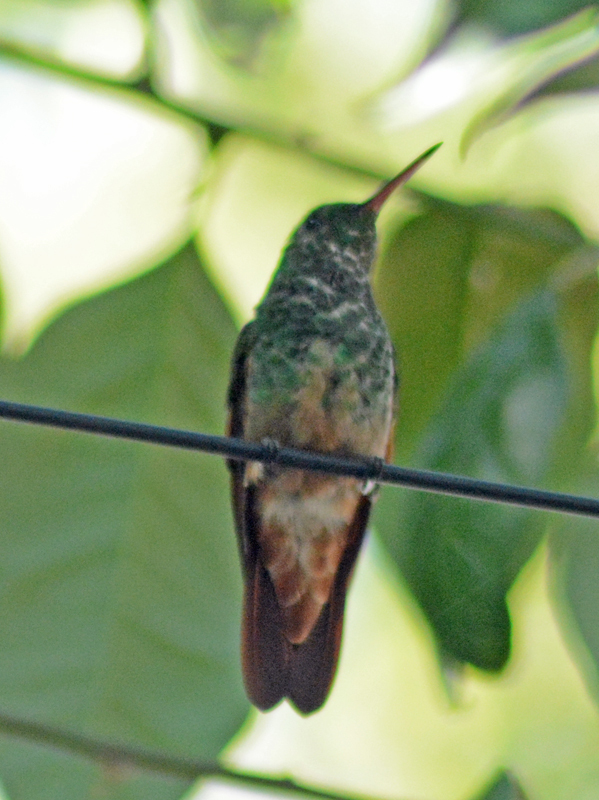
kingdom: Animalia
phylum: Chordata
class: Aves
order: Apodiformes
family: Trochilidae
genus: Saucerottia
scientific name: Saucerottia beryllina
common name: Berylline hummingbird
